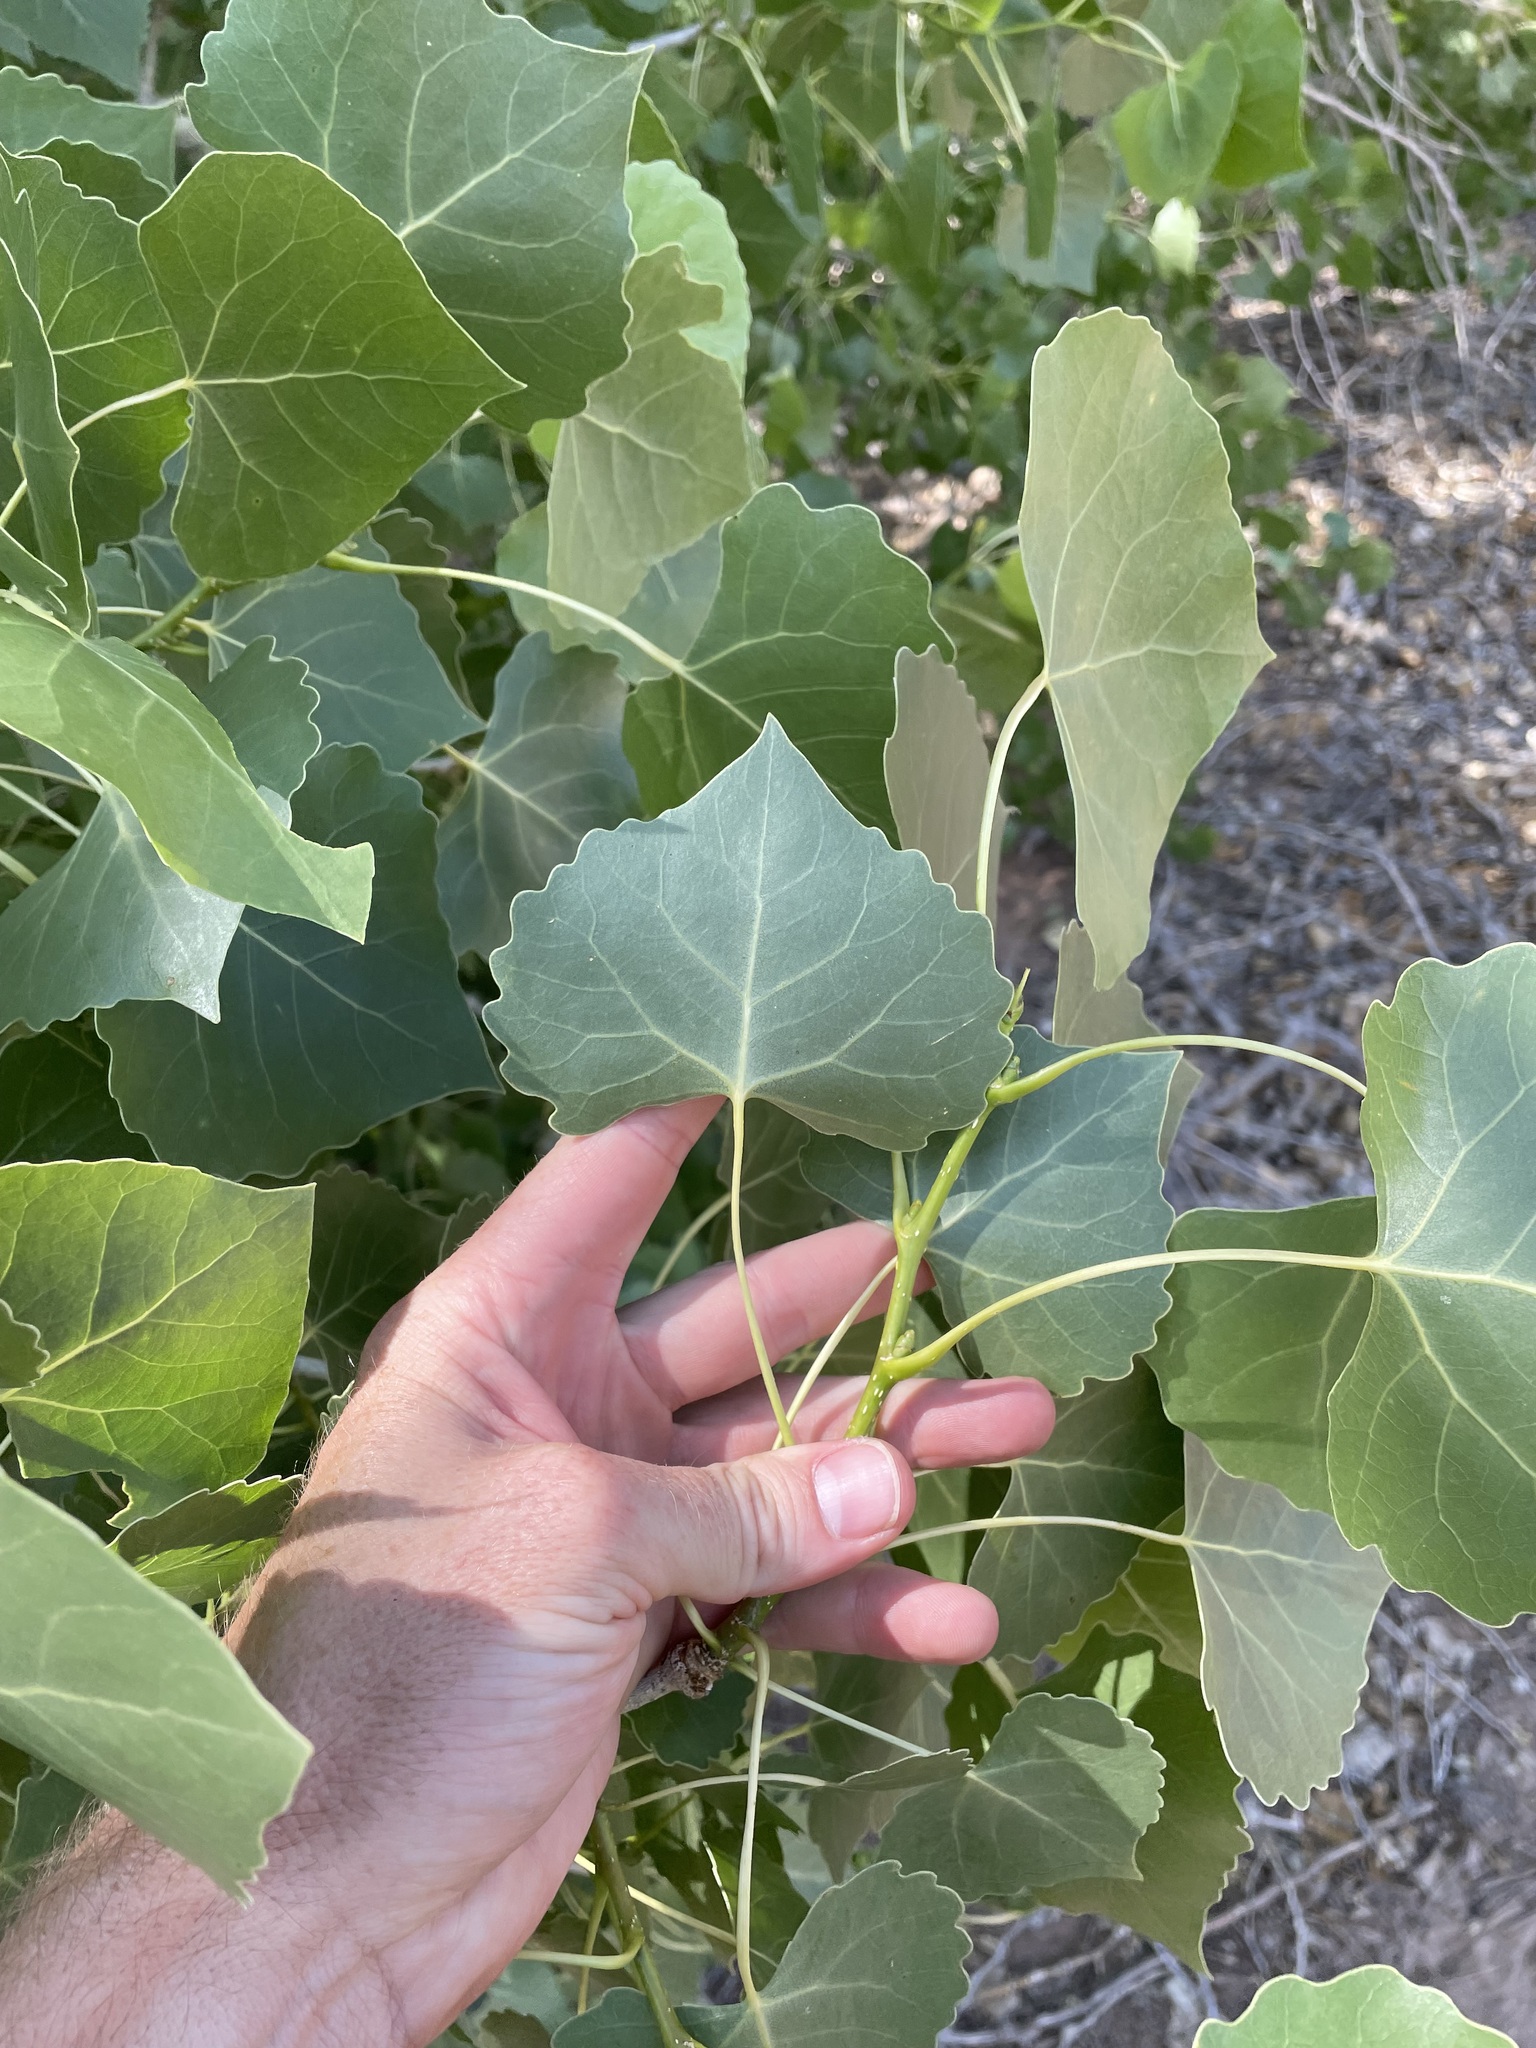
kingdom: Plantae
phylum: Tracheophyta
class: Magnoliopsida
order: Malpighiales
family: Salicaceae
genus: Populus
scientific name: Populus deltoides
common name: Eastern cottonwood
